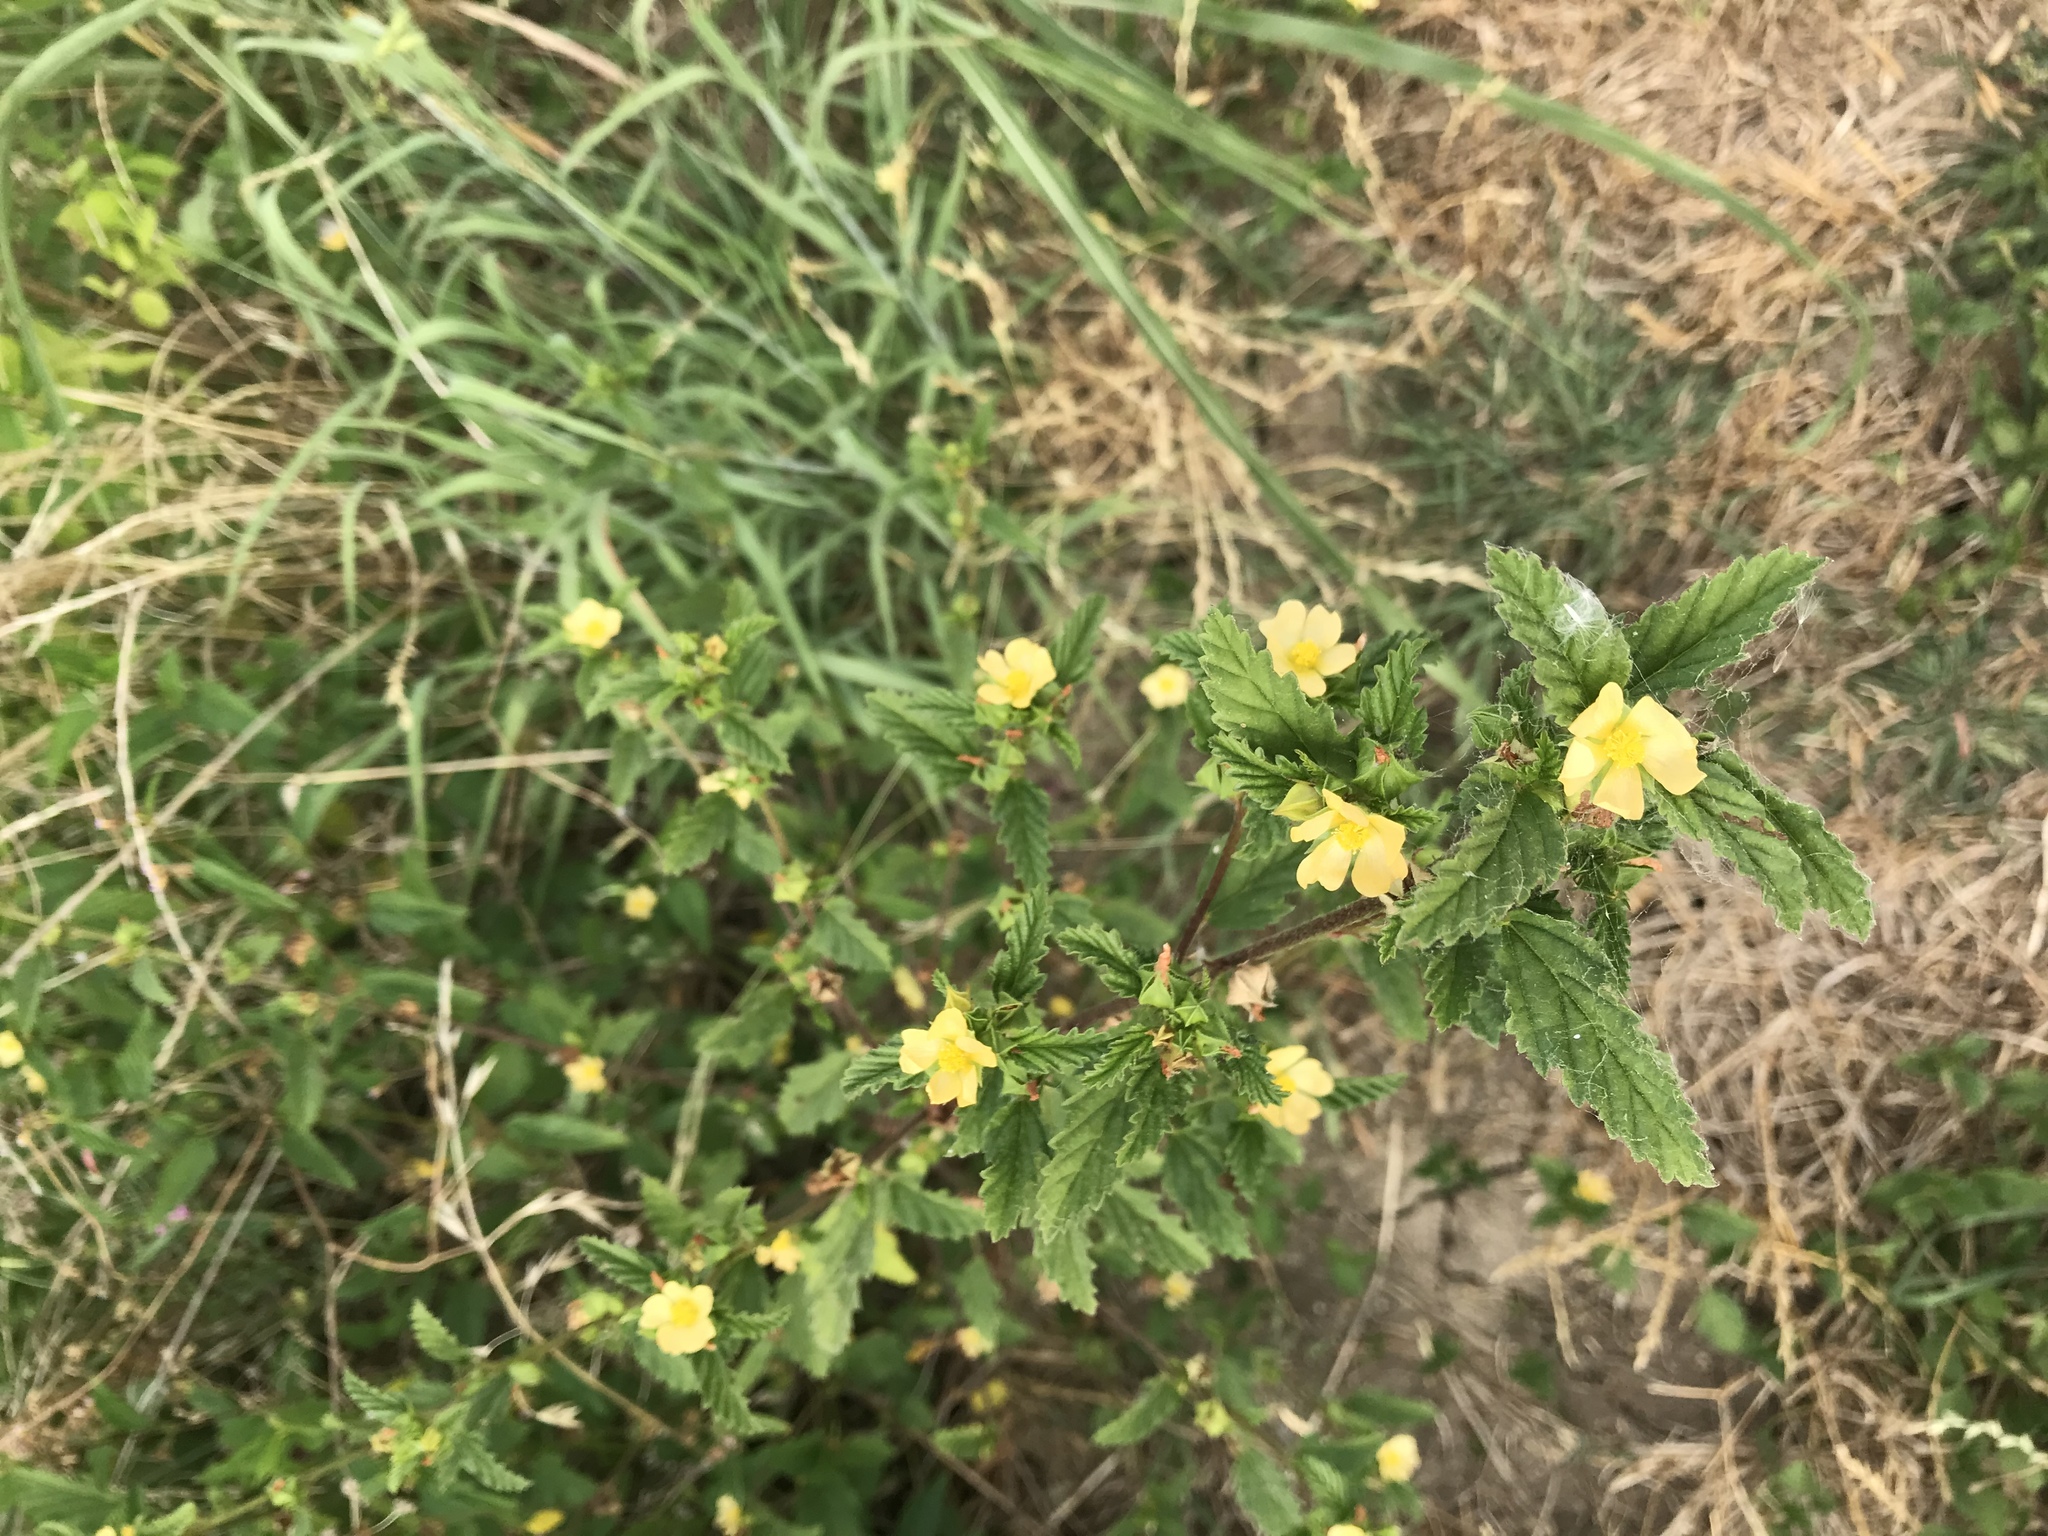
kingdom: Plantae
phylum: Tracheophyta
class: Magnoliopsida
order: Malvales
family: Malvaceae
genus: Malvastrum
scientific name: Malvastrum coromandelianum
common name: Threelobe false mallow
